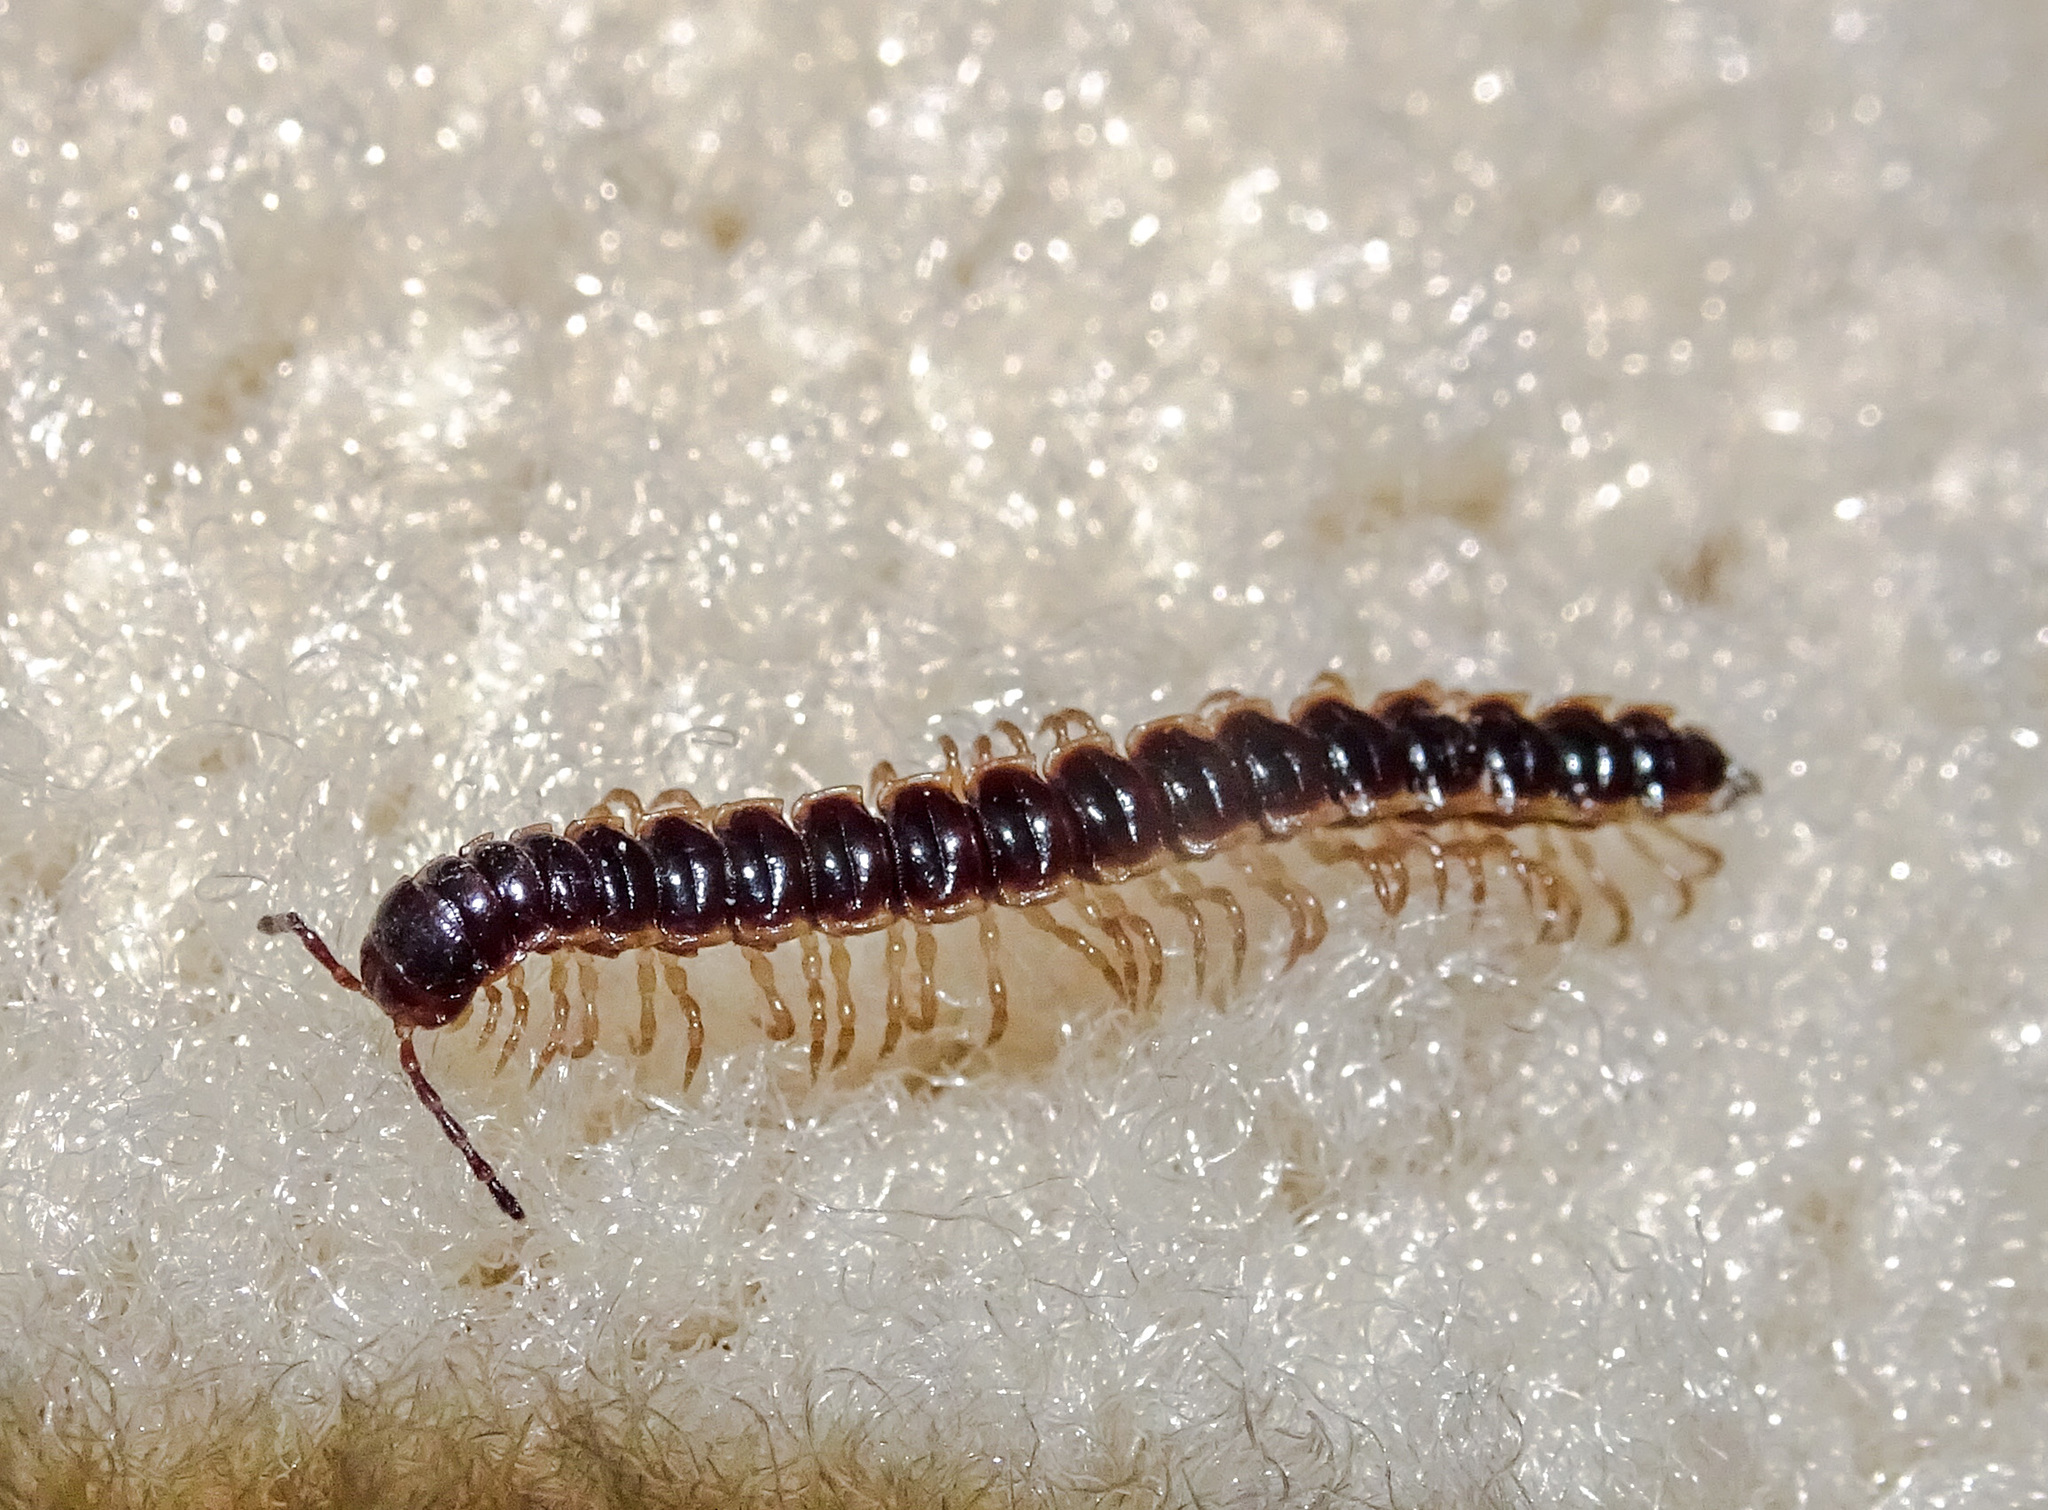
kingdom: Animalia
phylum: Arthropoda
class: Diplopoda
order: Polydesmida
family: Paradoxosomatidae
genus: Oxidus
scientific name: Oxidus gracilis
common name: Greenhouse millipede
